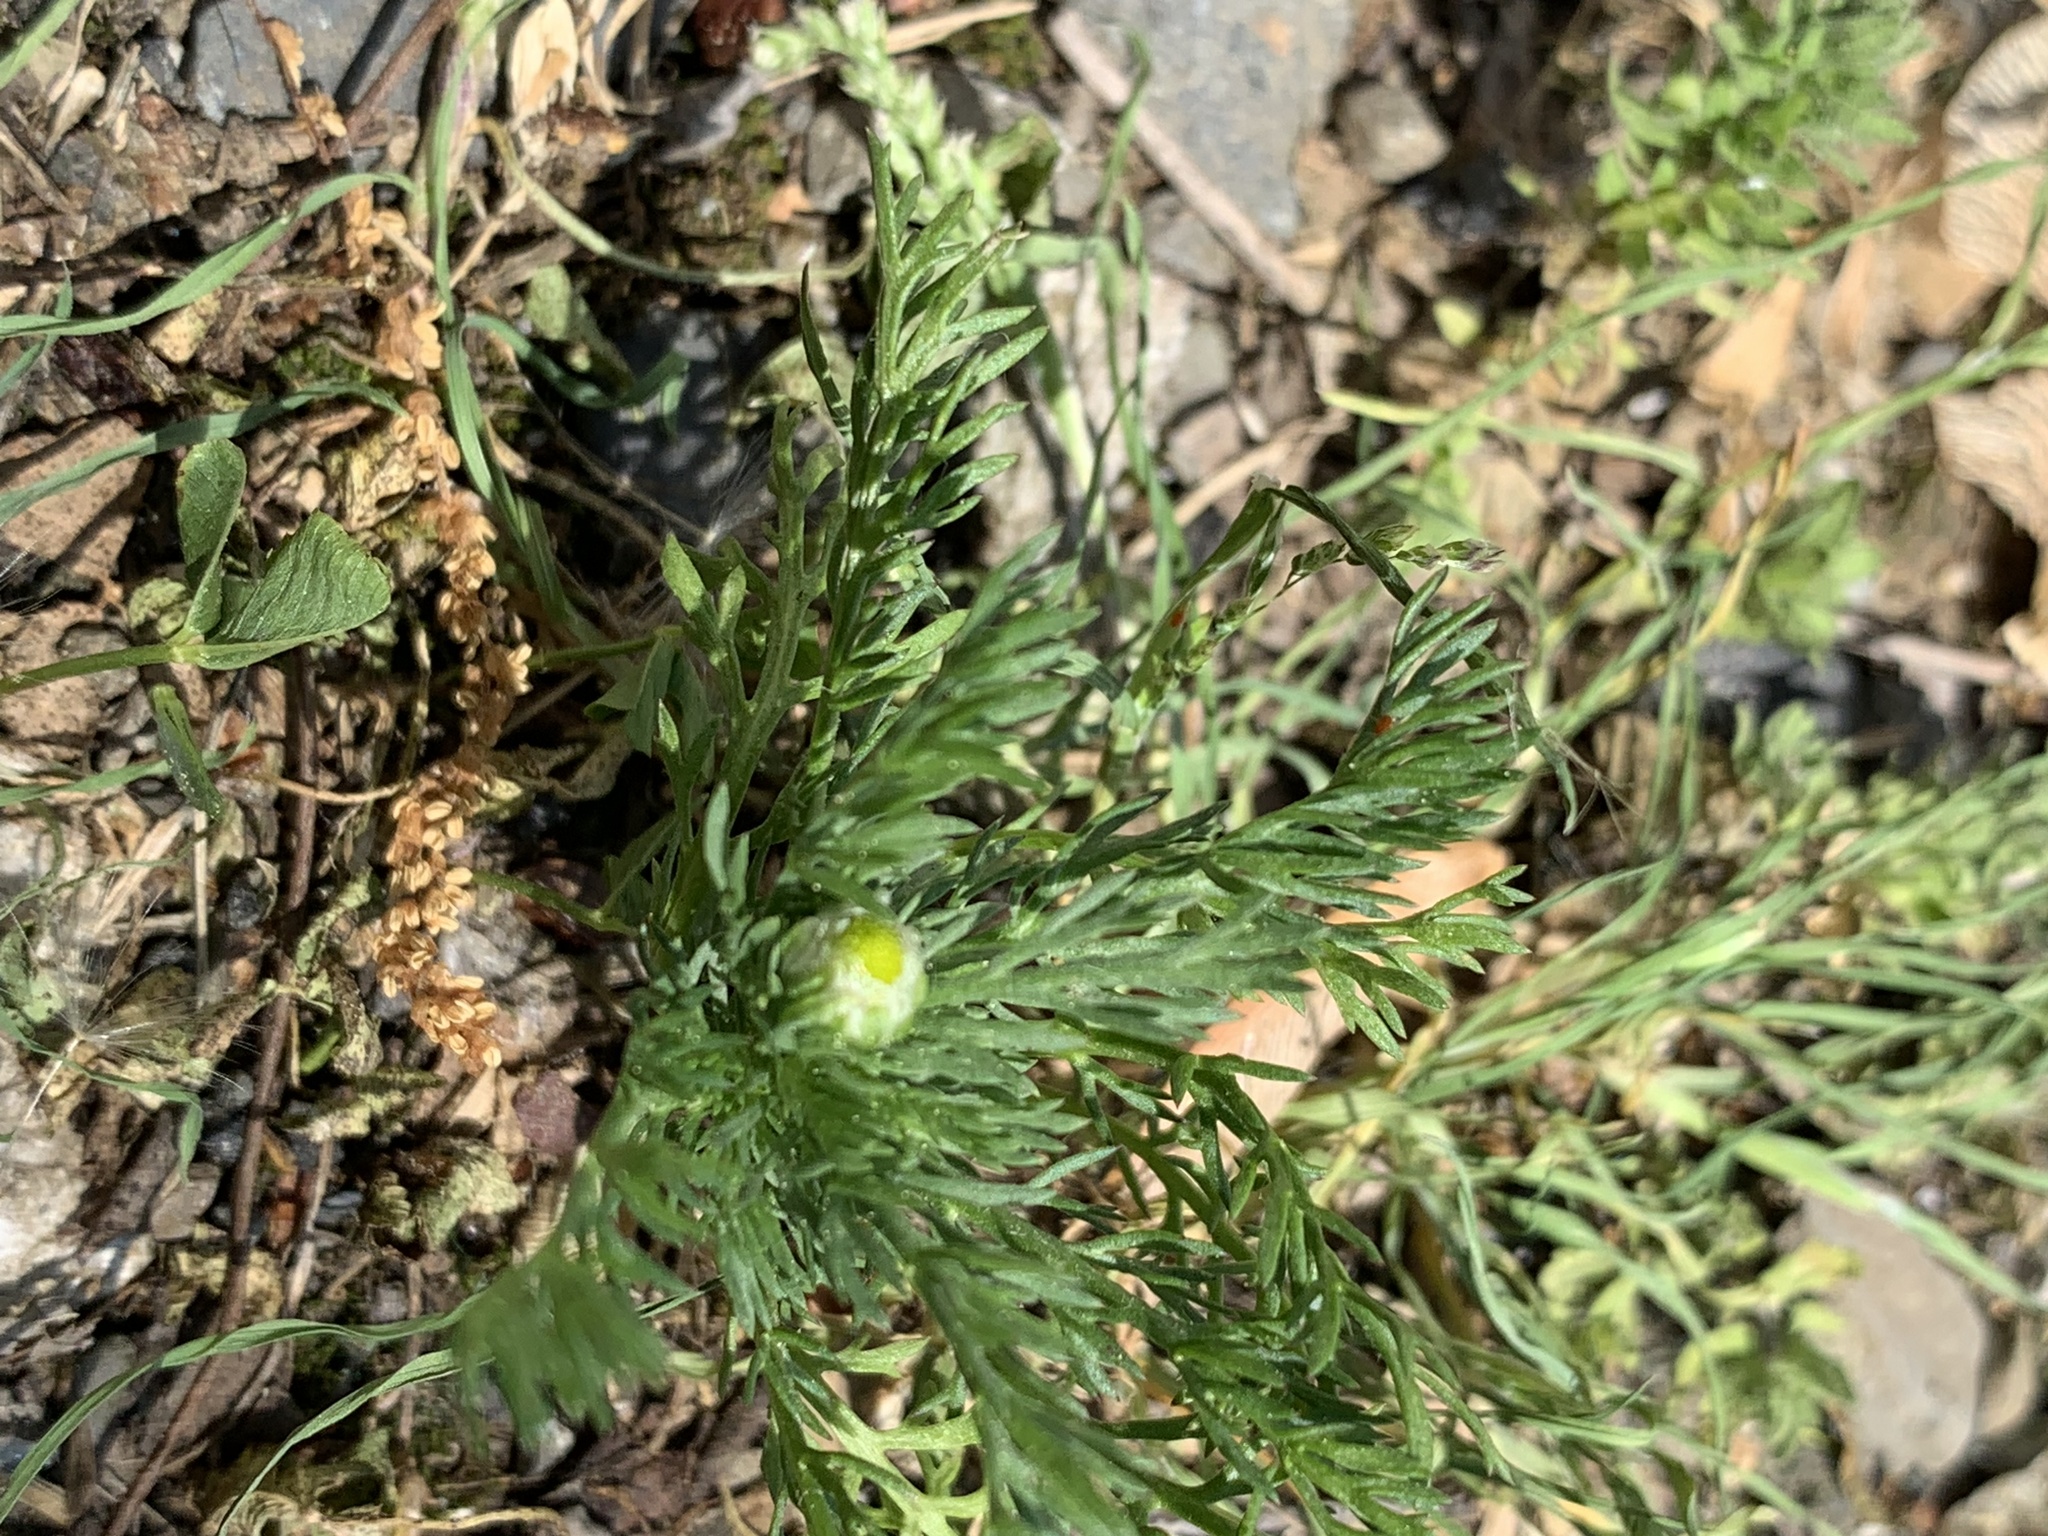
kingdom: Plantae
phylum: Tracheophyta
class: Magnoliopsida
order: Asterales
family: Asteraceae
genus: Matricaria
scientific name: Matricaria discoidea
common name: Disc mayweed
